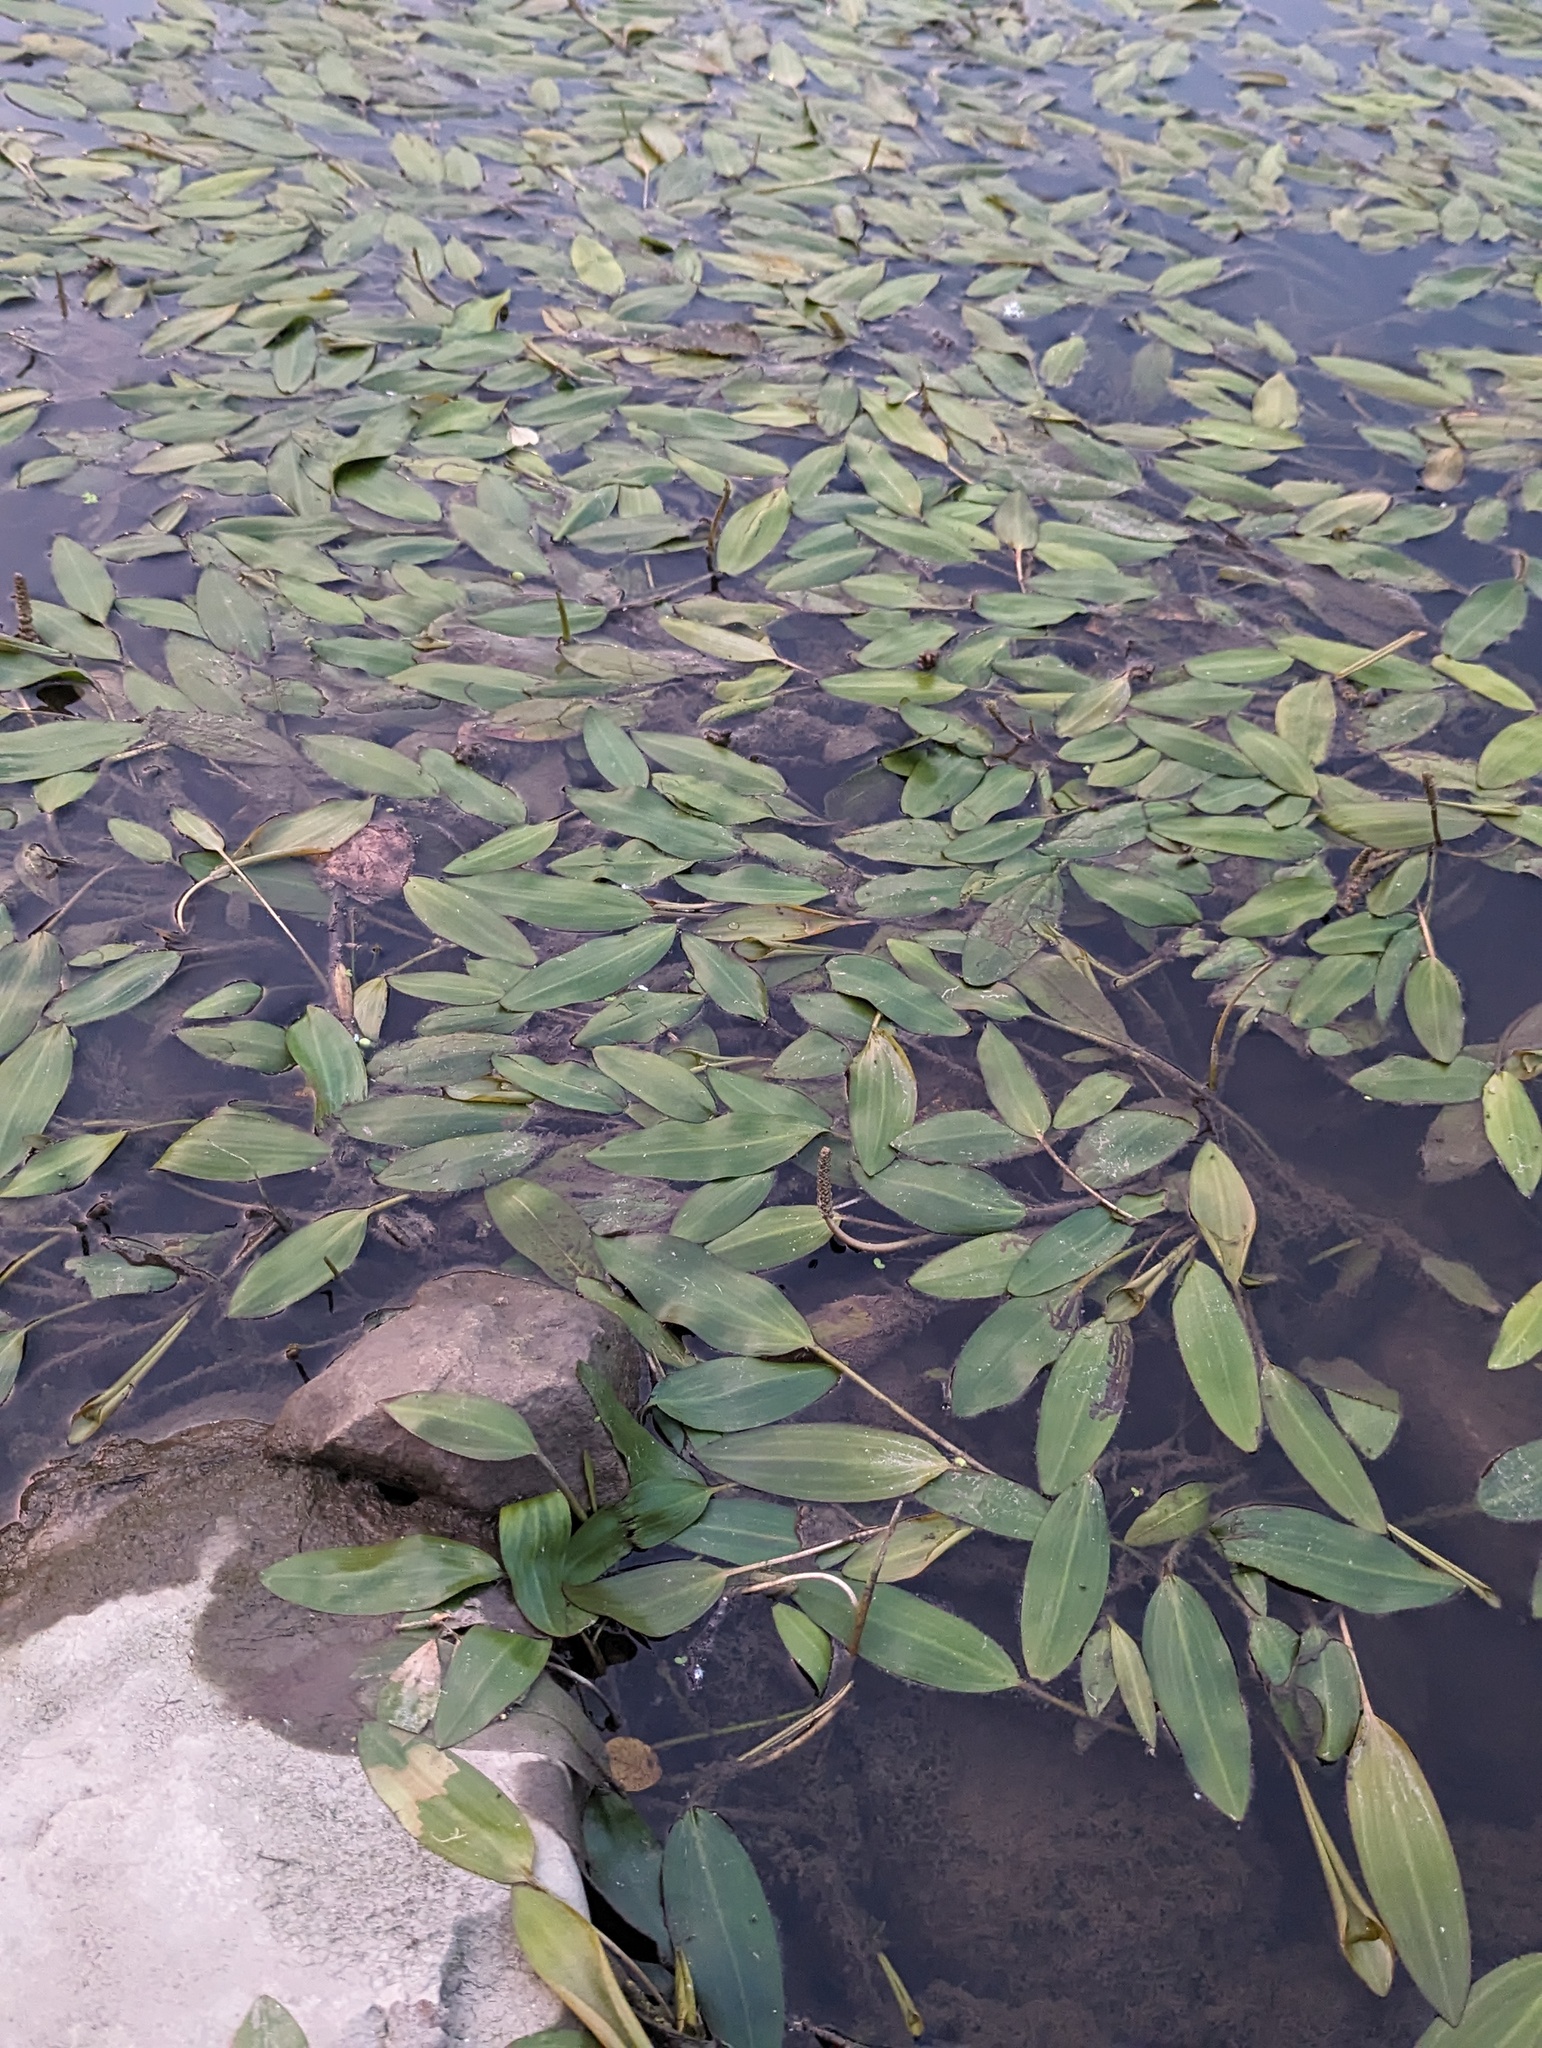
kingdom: Plantae
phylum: Tracheophyta
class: Liliopsida
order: Alismatales
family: Potamogetonaceae
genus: Potamogeton
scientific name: Potamogeton nodosus
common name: Loddon pondweed
